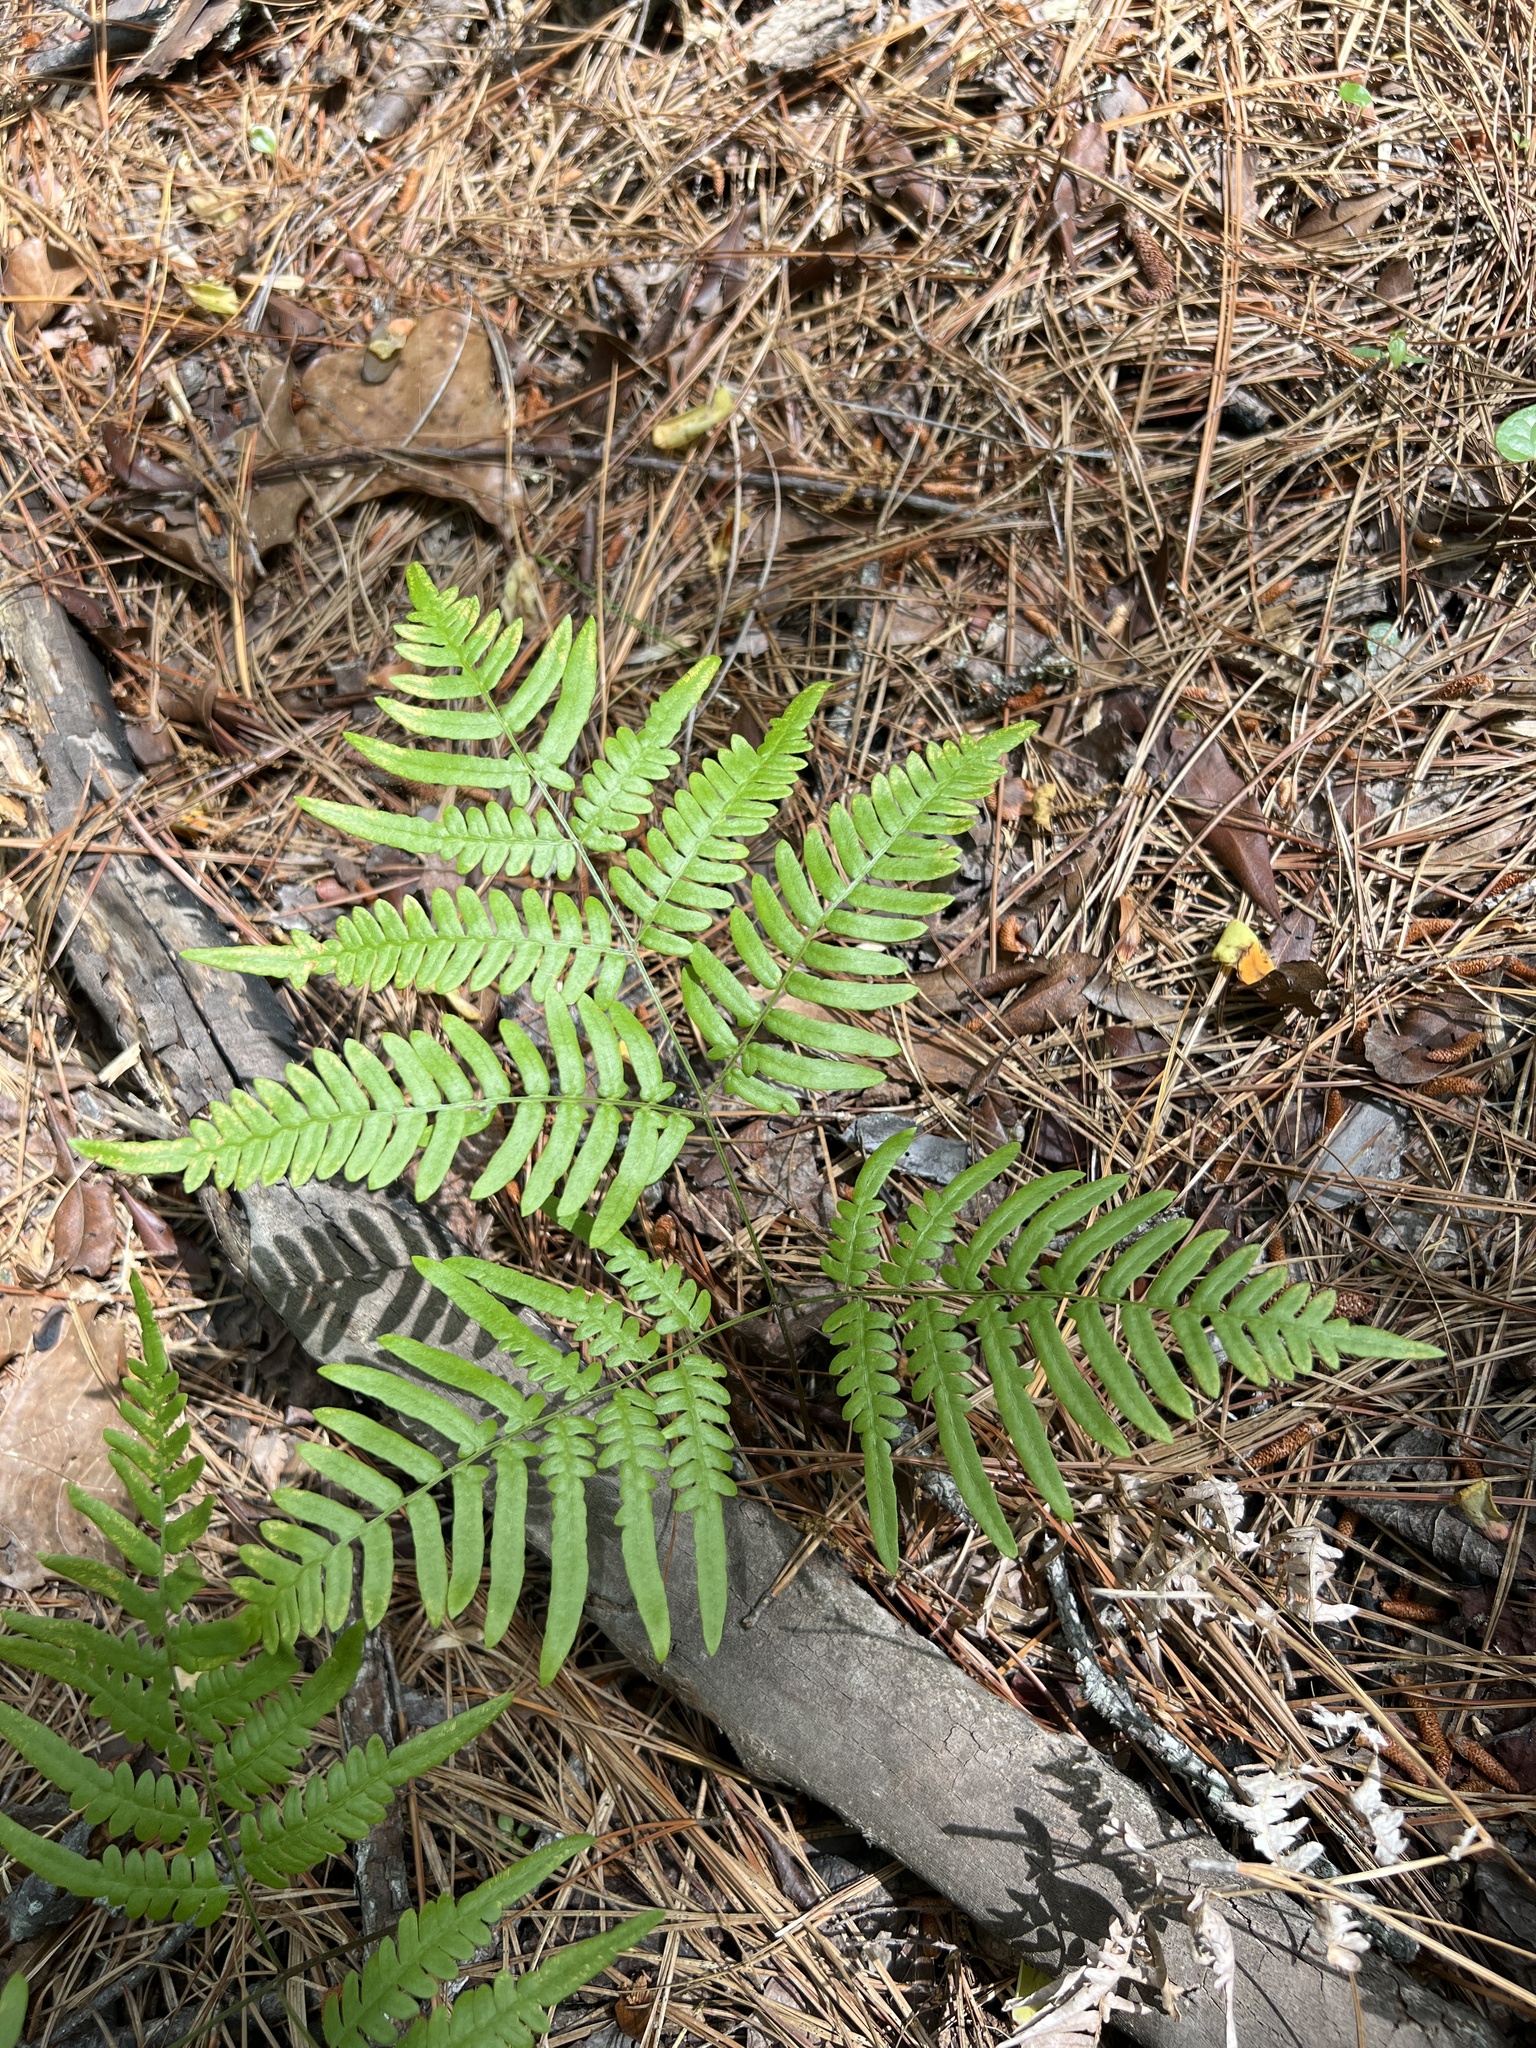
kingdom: Plantae
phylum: Tracheophyta
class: Polypodiopsida
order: Polypodiales
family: Dennstaedtiaceae
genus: Pteridium
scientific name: Pteridium
